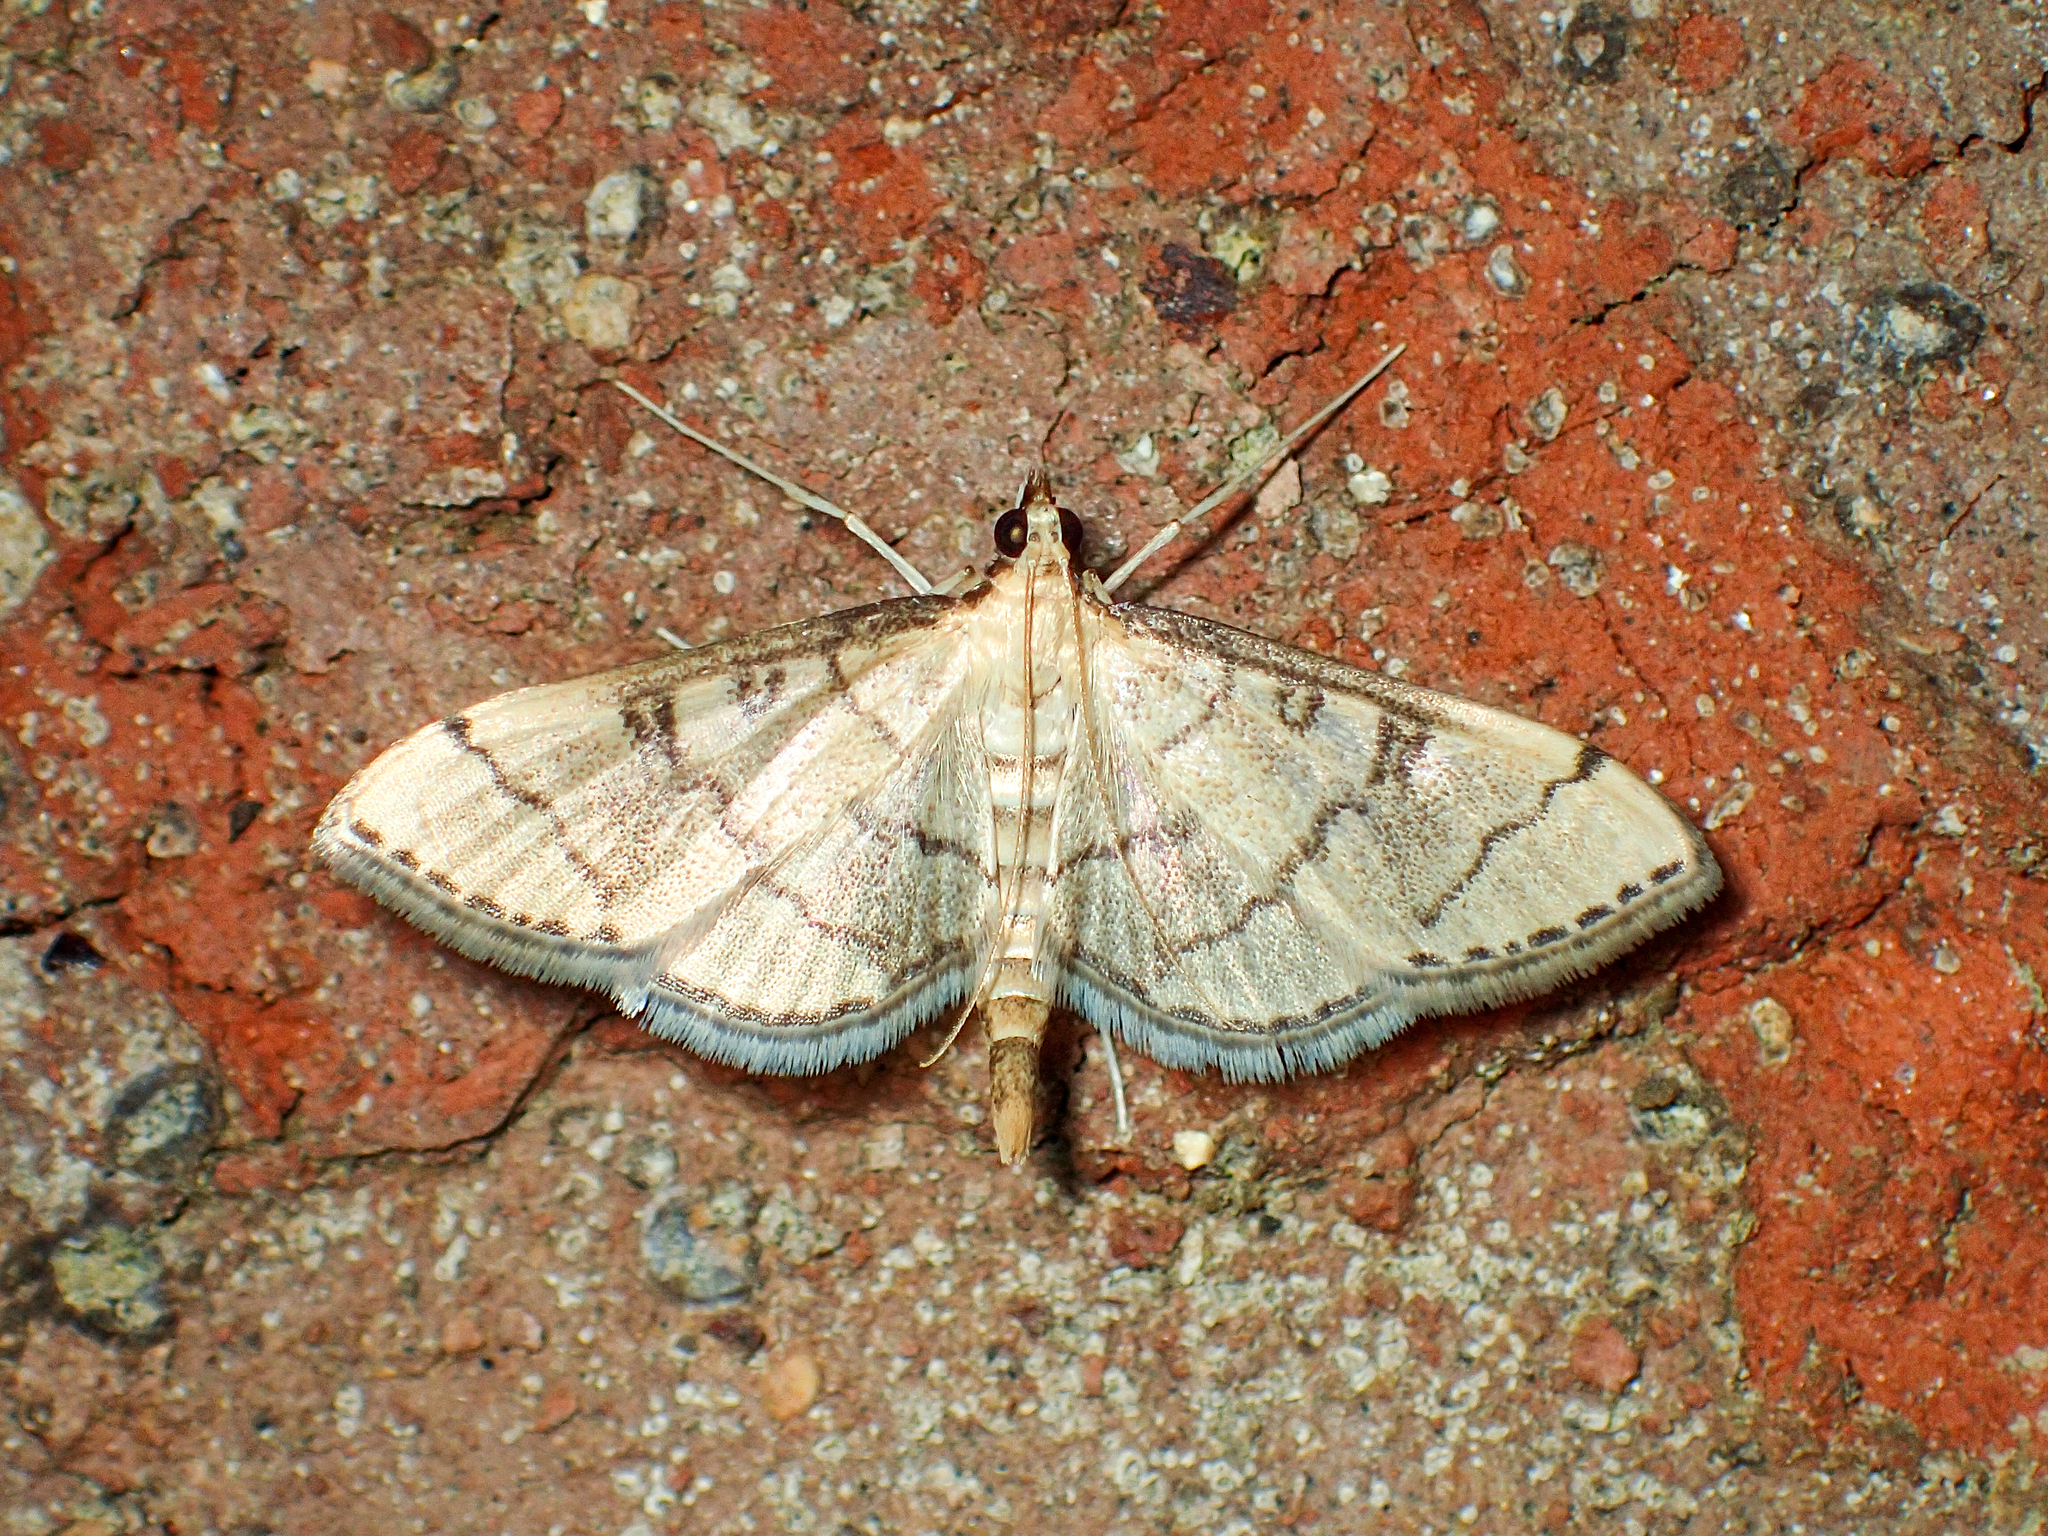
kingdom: Animalia
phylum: Arthropoda
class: Insecta
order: Lepidoptera
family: Crambidae
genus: Lamprosema
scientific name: Lamprosema Blepharomastix ranalis
